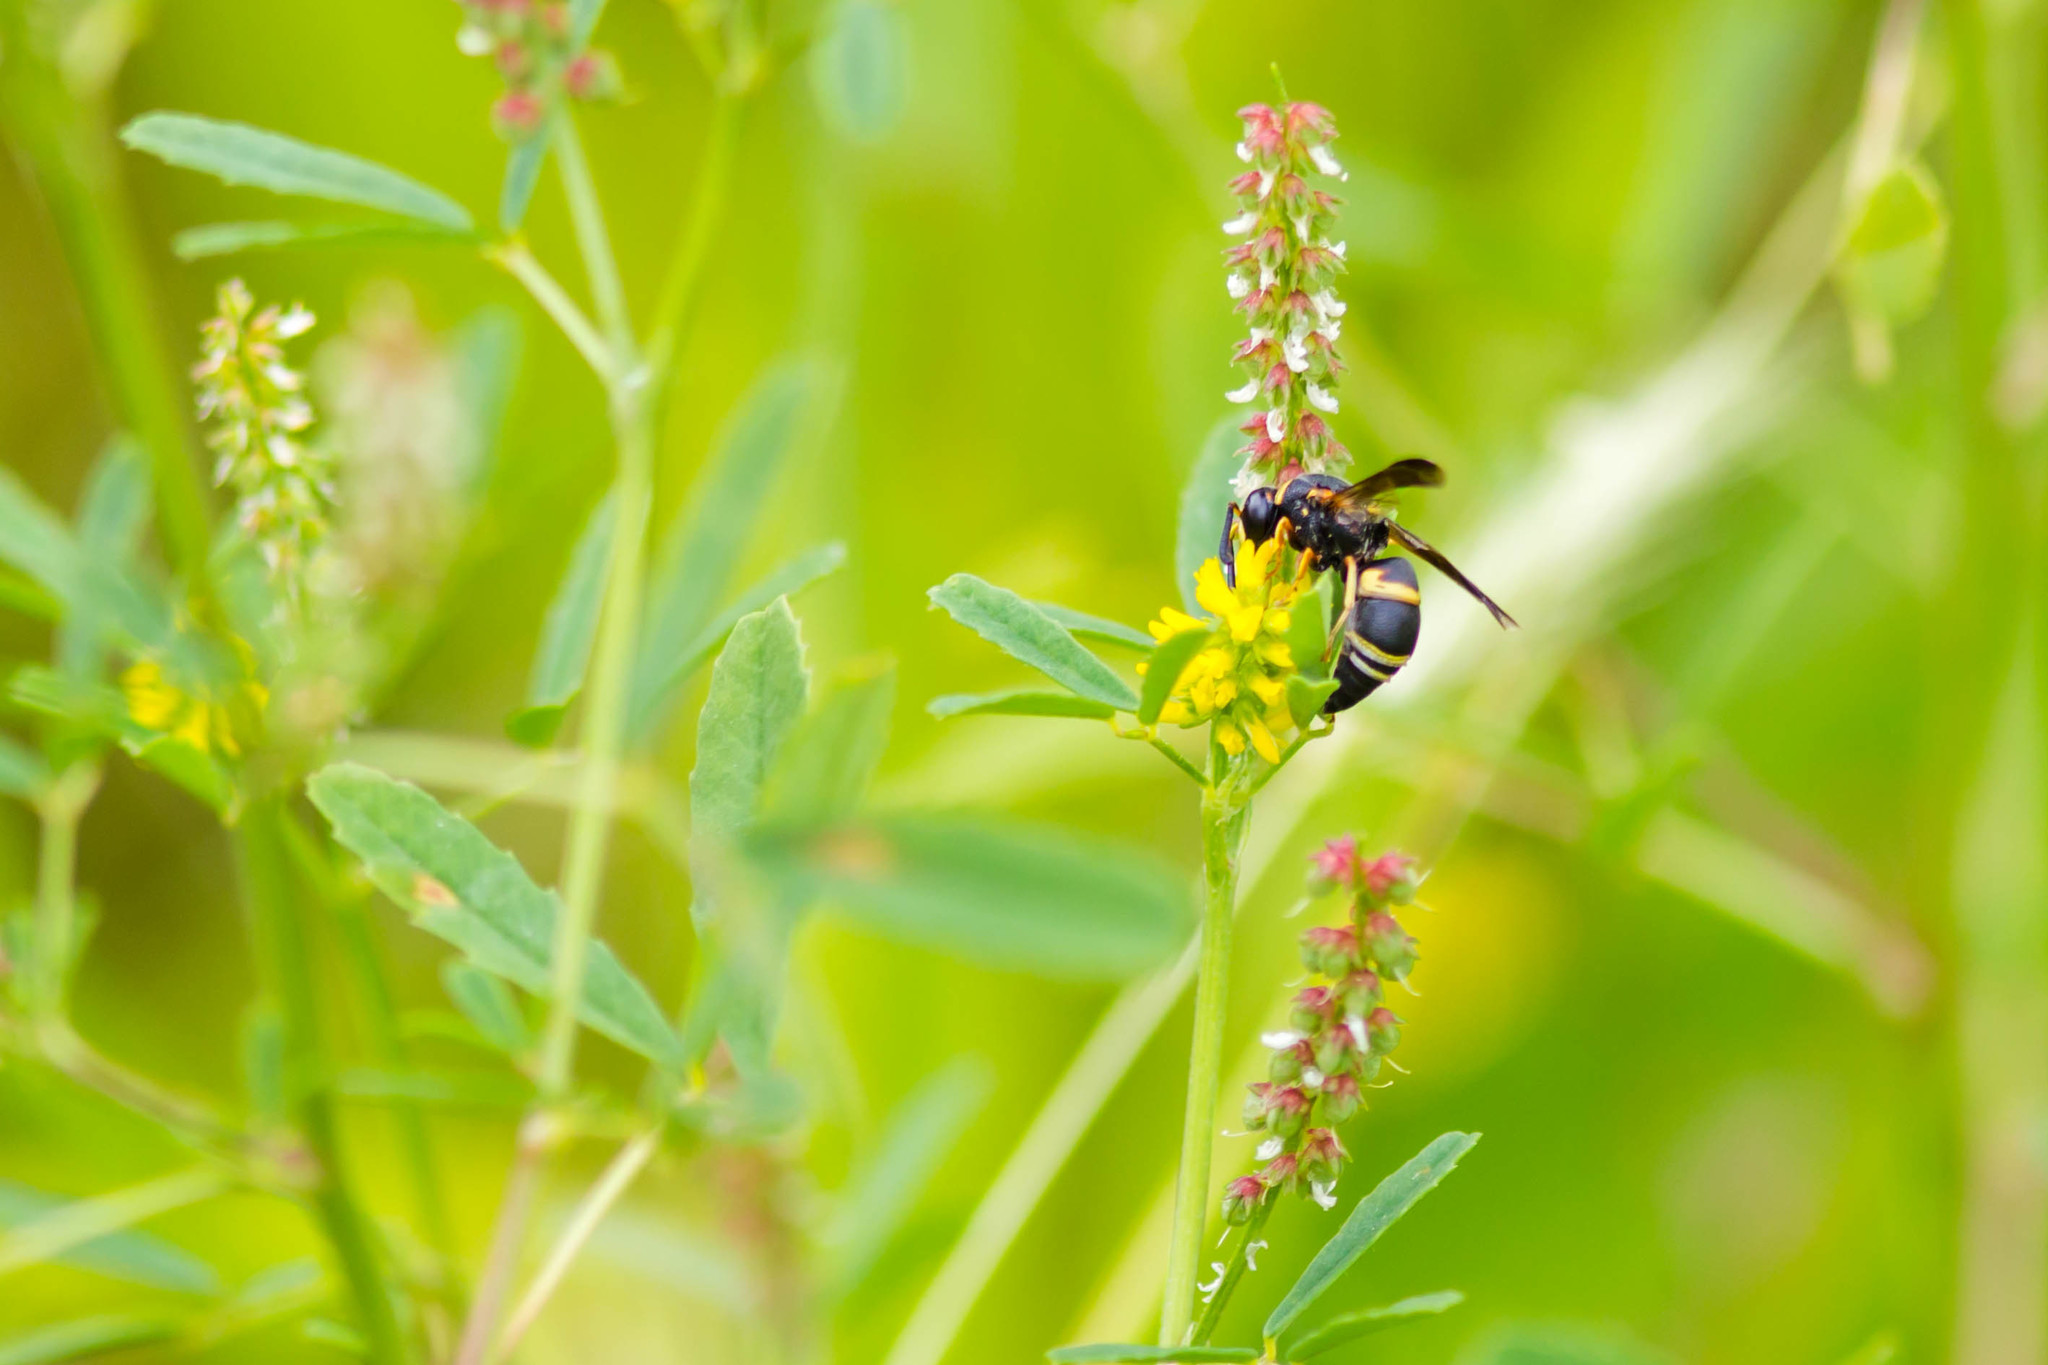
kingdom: Animalia
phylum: Arthropoda
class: Insecta
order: Hymenoptera
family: Eumenidae
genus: Euodynerus
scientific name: Euodynerus hidalgo
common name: Wasp
